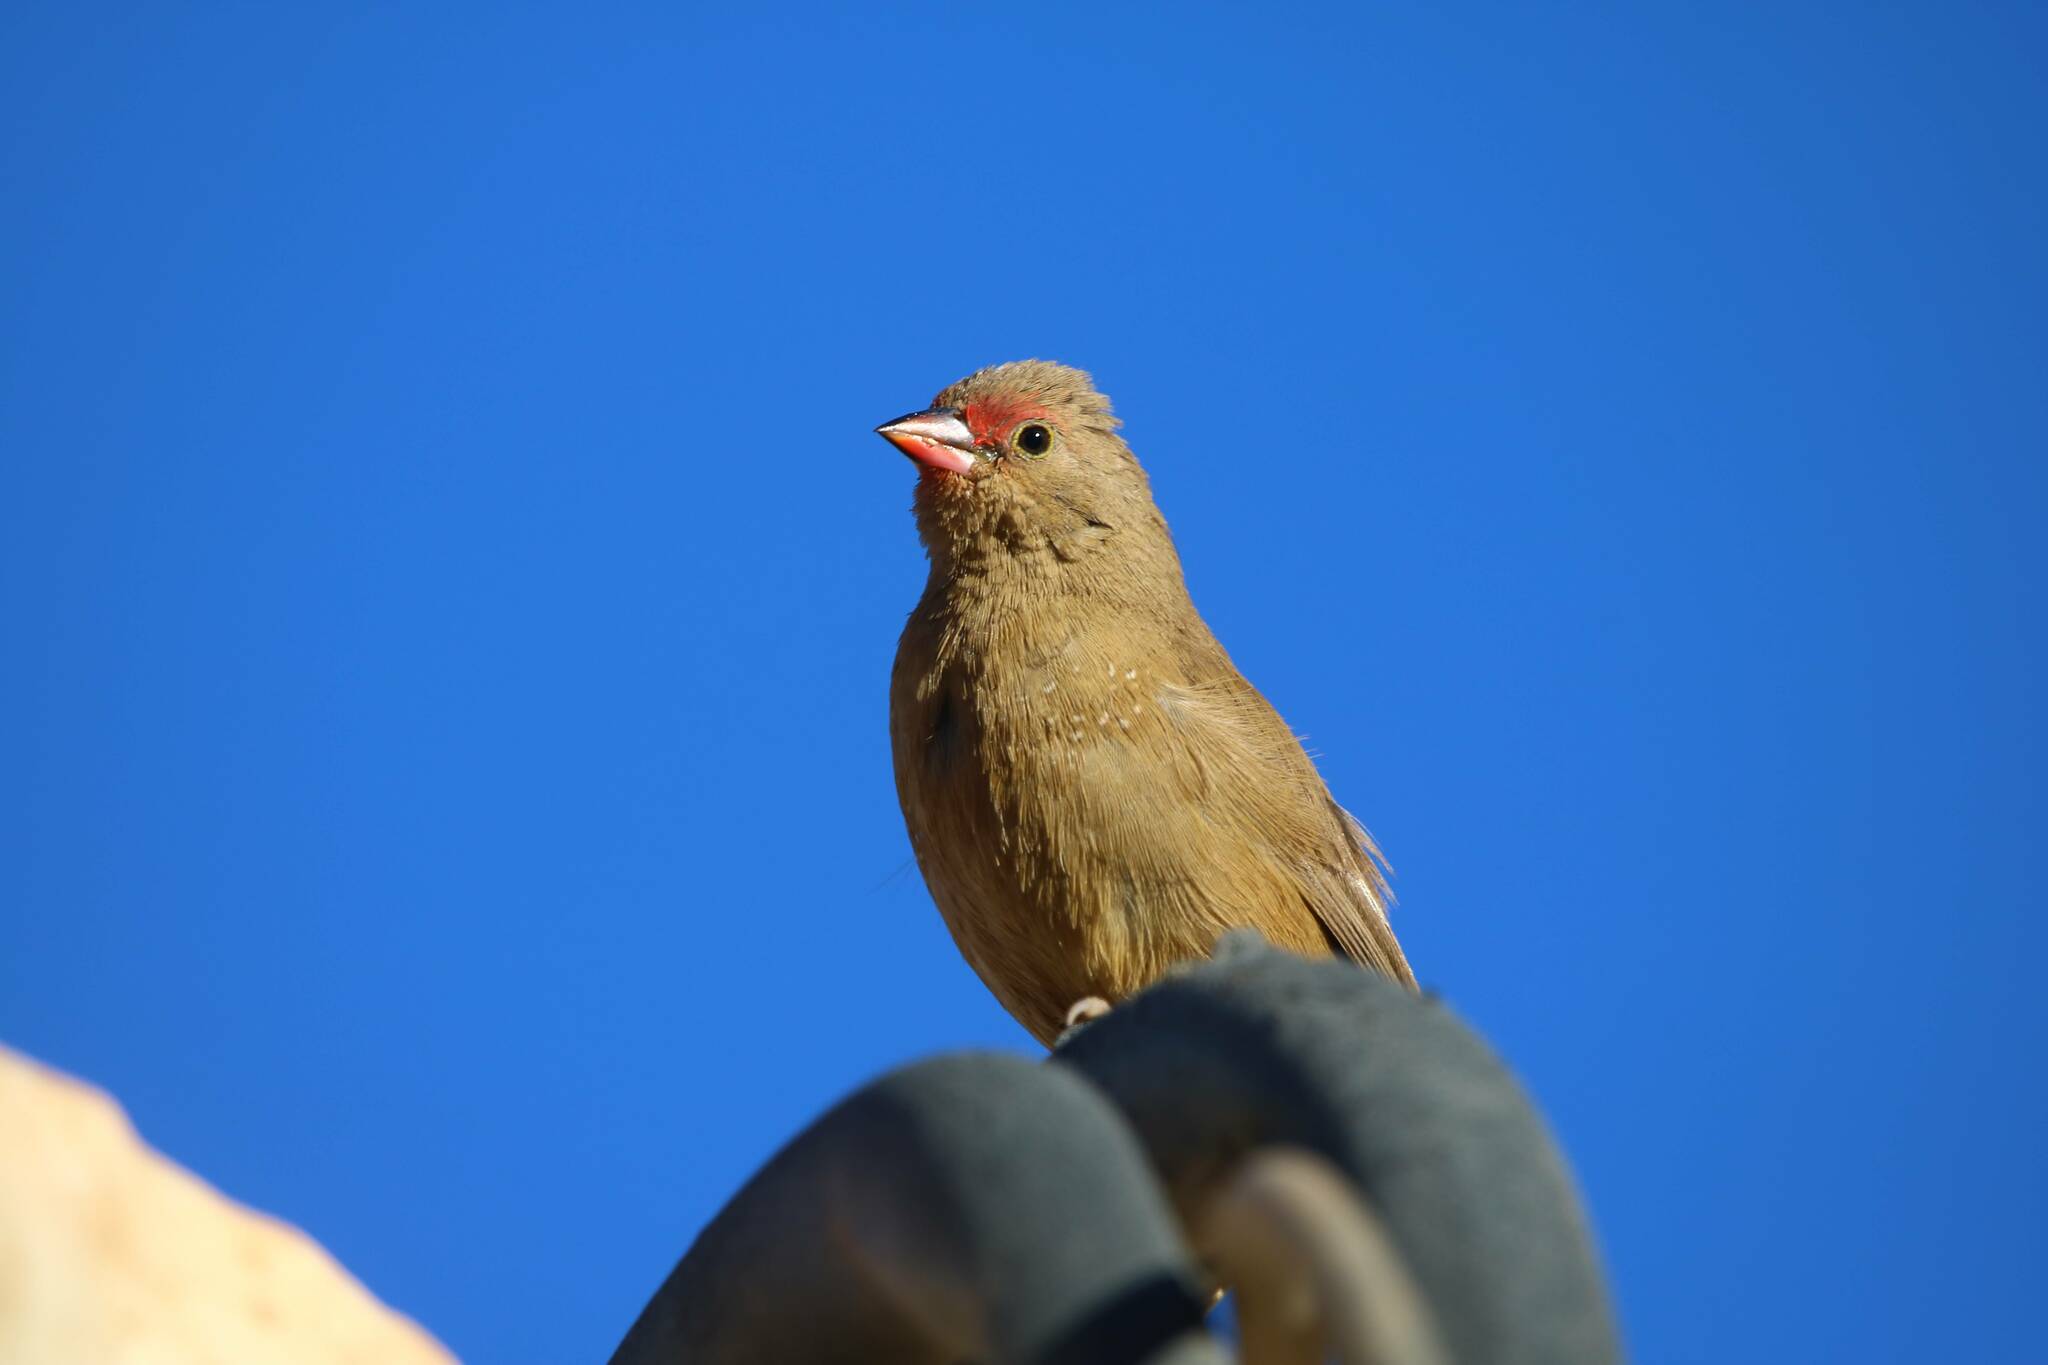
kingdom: Animalia
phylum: Chordata
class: Aves
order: Passeriformes
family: Estrildidae
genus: Lagonosticta
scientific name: Lagonosticta senegala
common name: Red-billed firefinch
